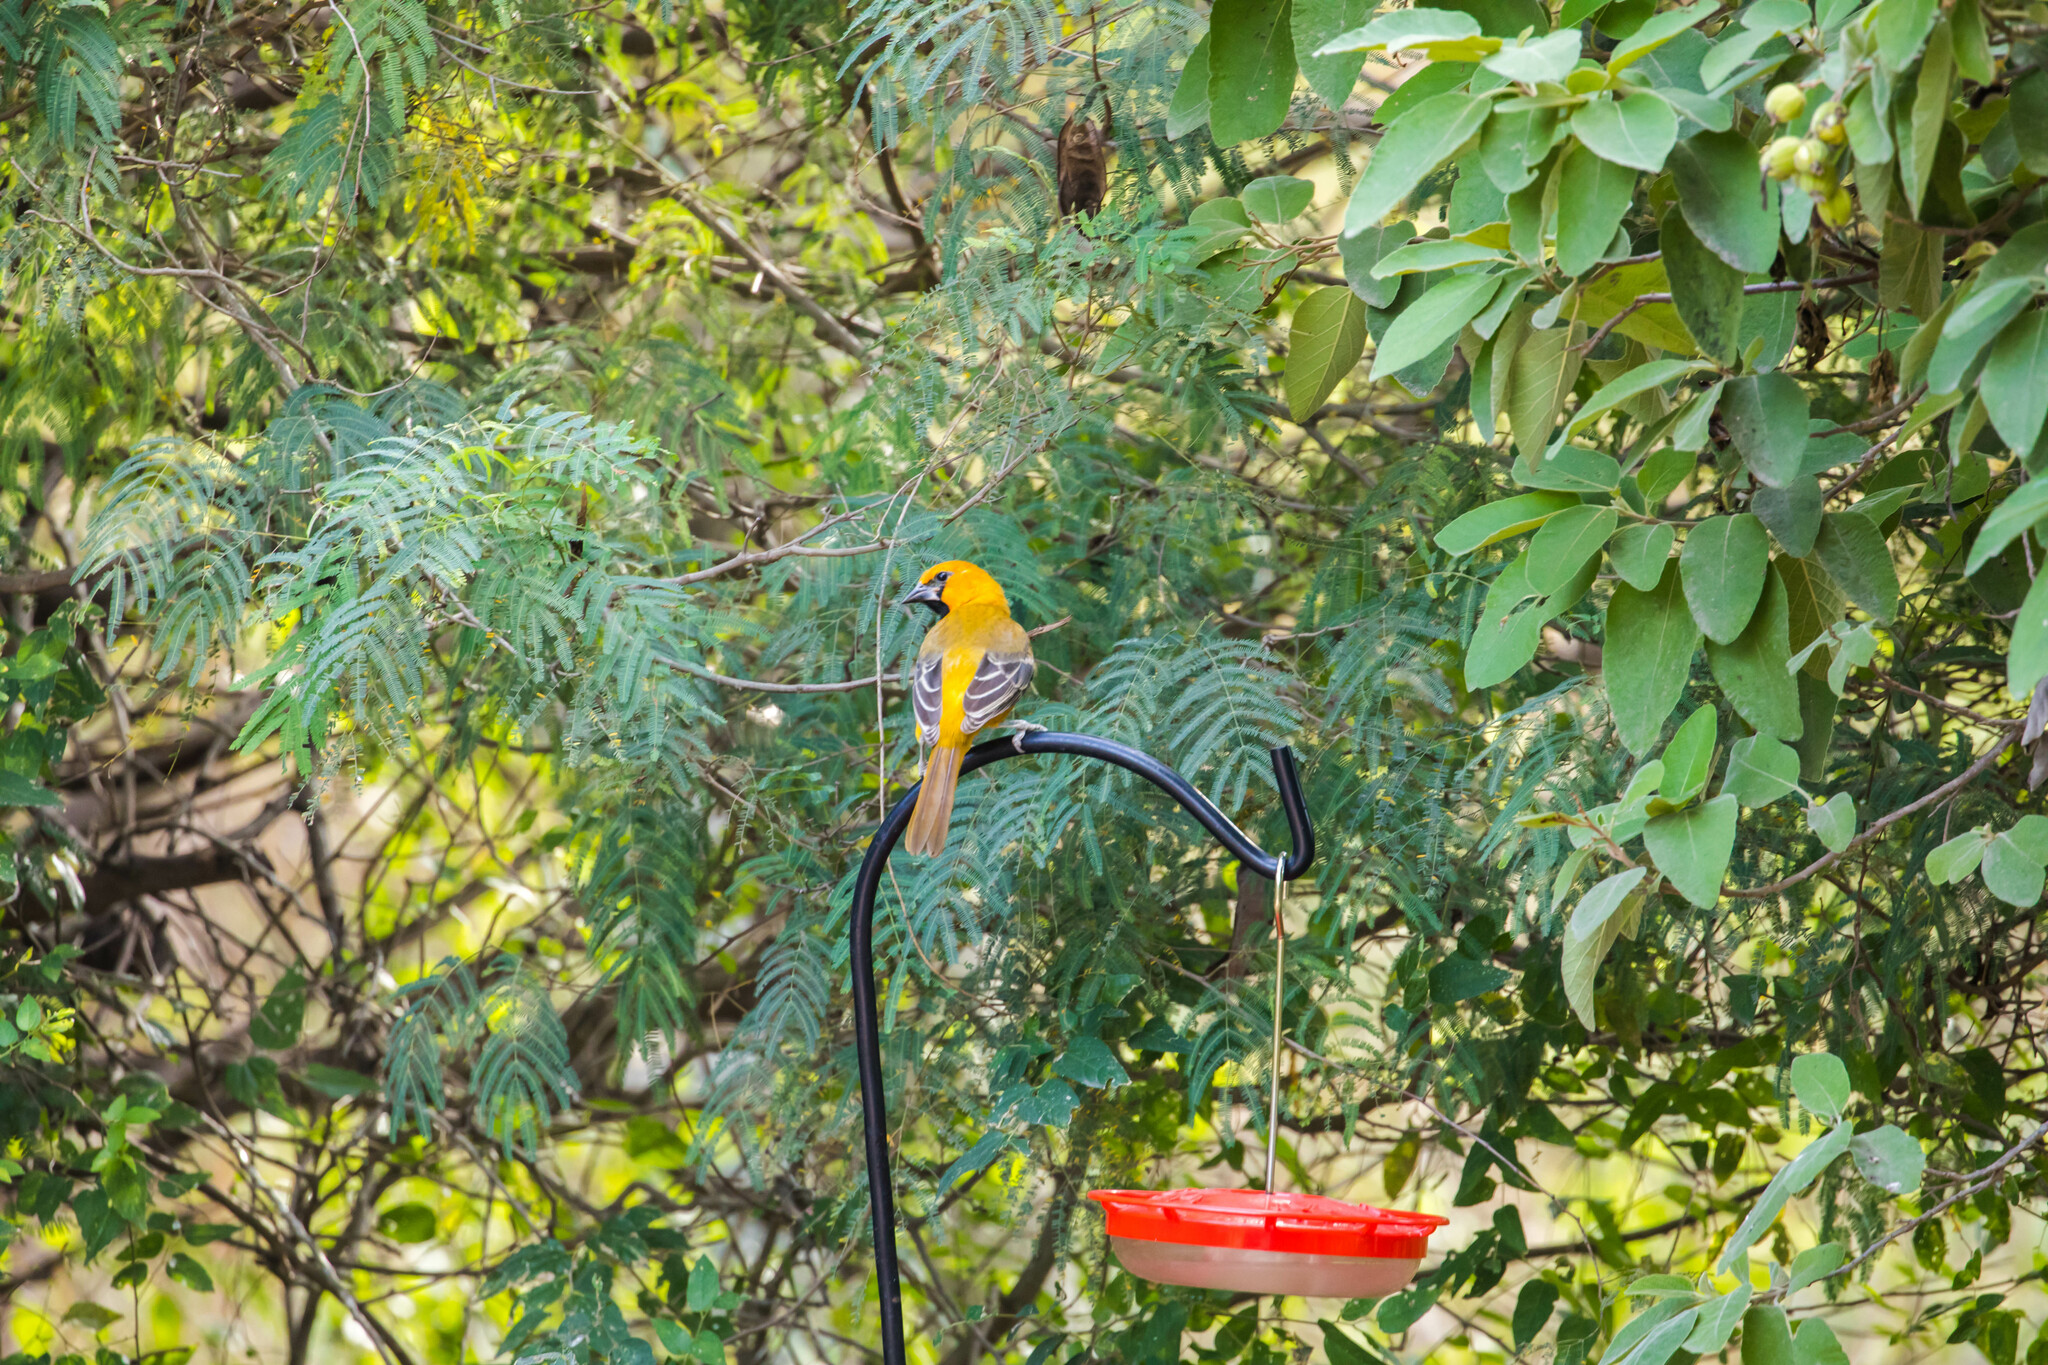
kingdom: Animalia
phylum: Chordata
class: Aves
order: Passeriformes
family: Icteridae
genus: Icterus
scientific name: Icterus gularis
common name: Altamira oriole
